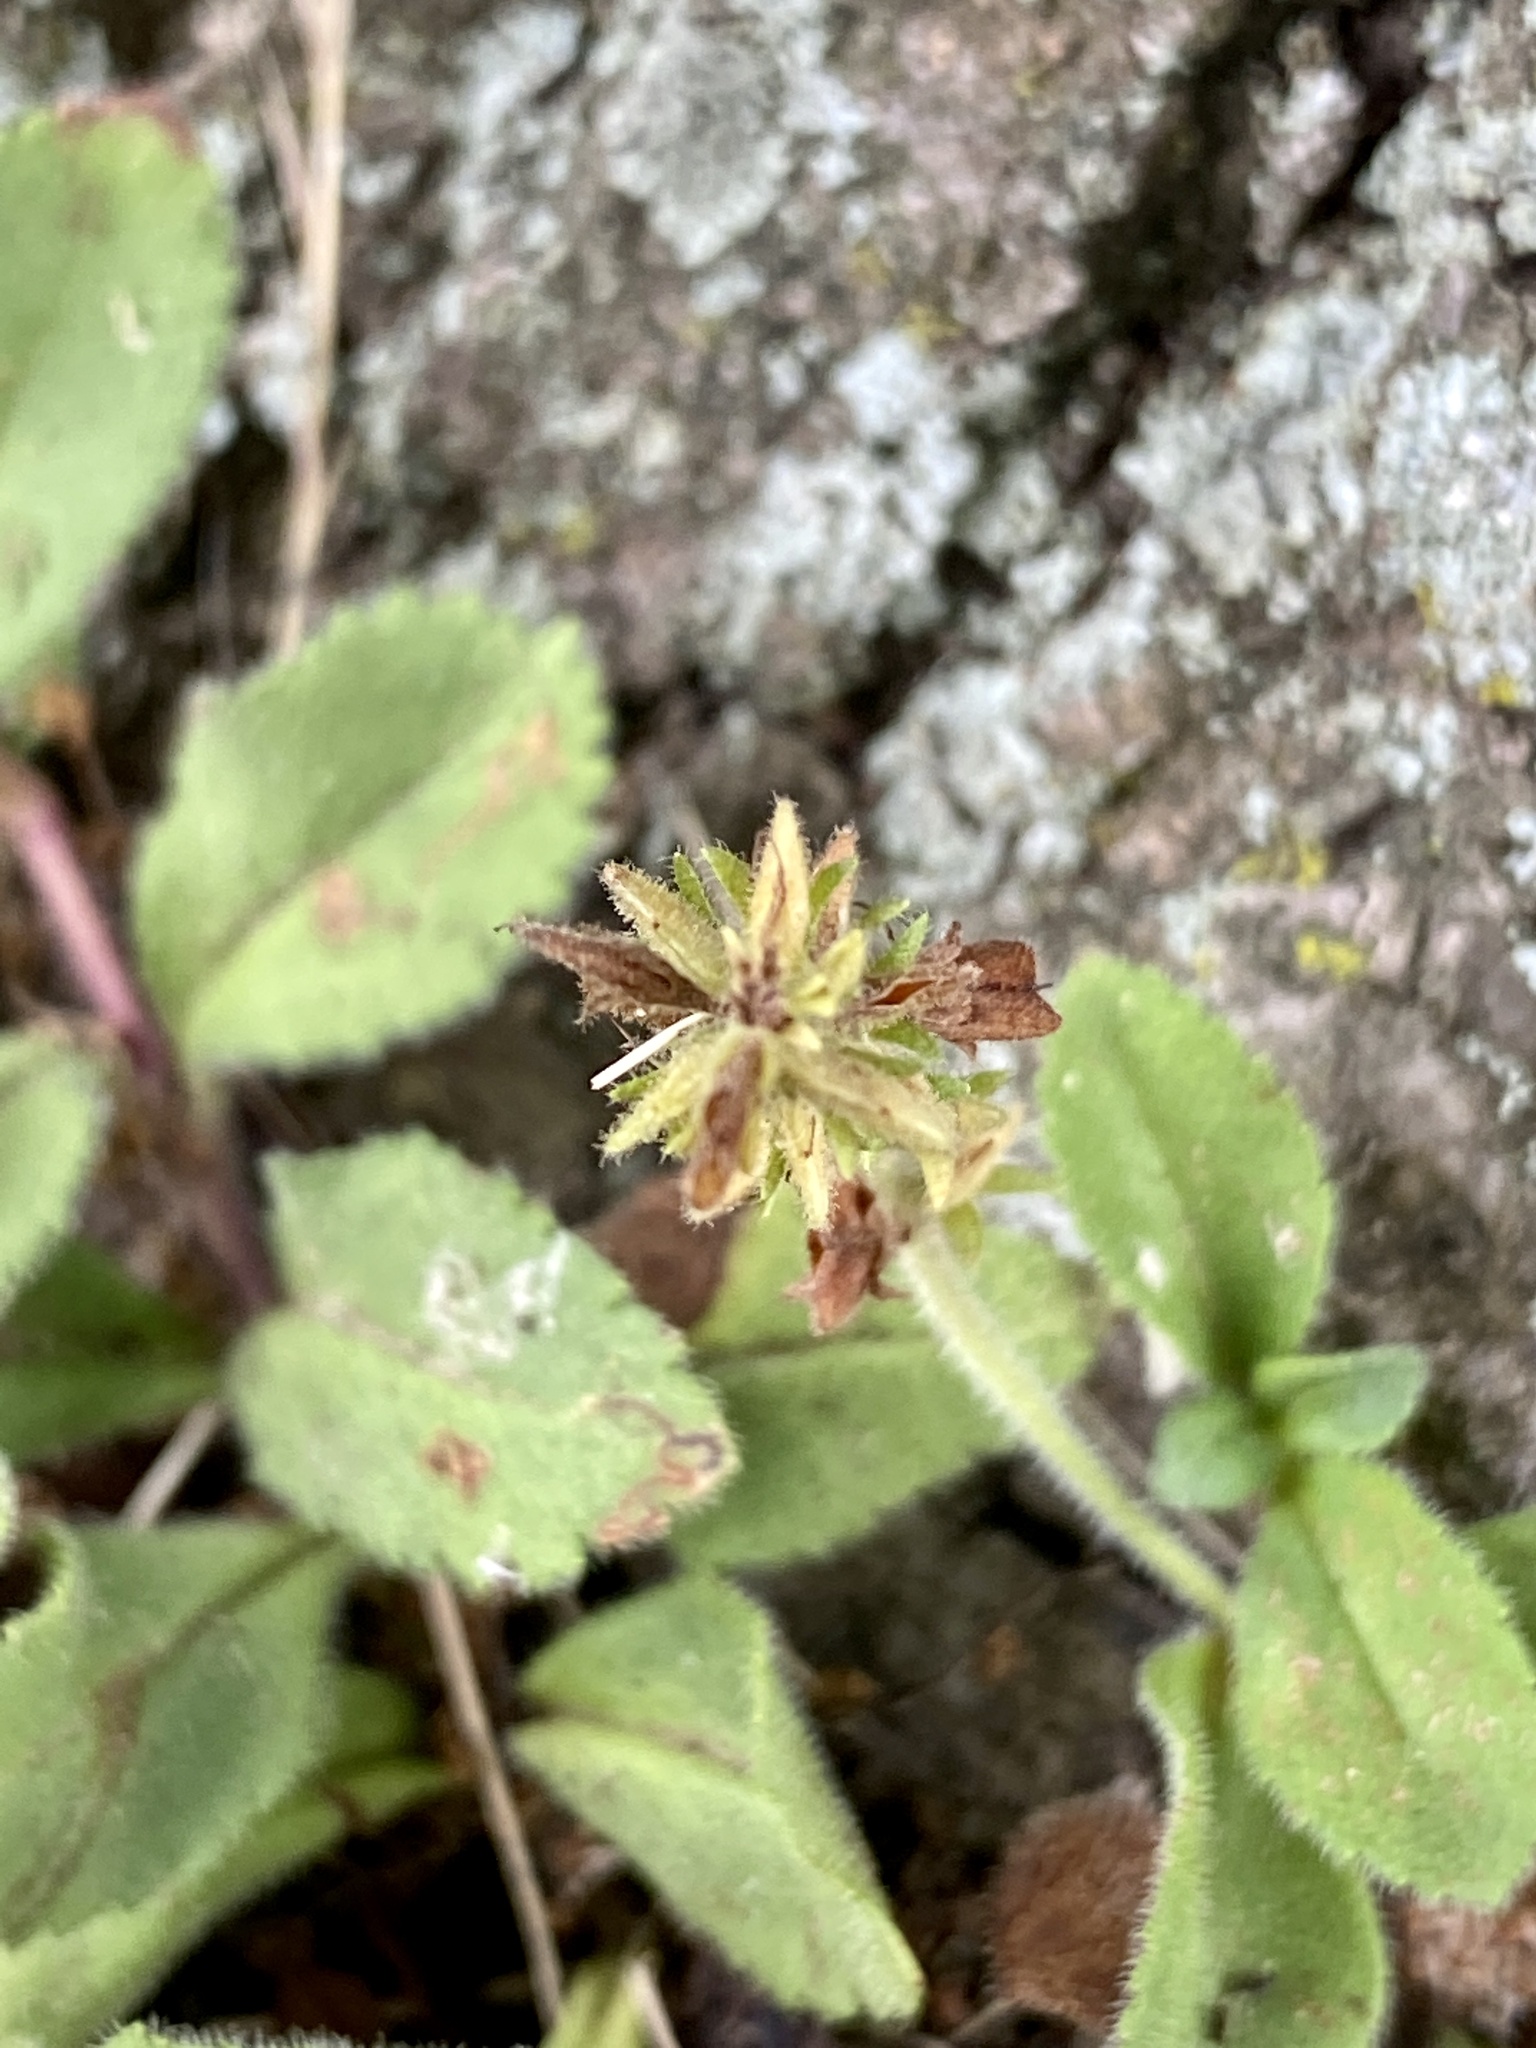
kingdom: Plantae
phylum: Tracheophyta
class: Magnoliopsida
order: Lamiales
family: Plantaginaceae
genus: Veronica
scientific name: Veronica officinalis
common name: Common speedwell
